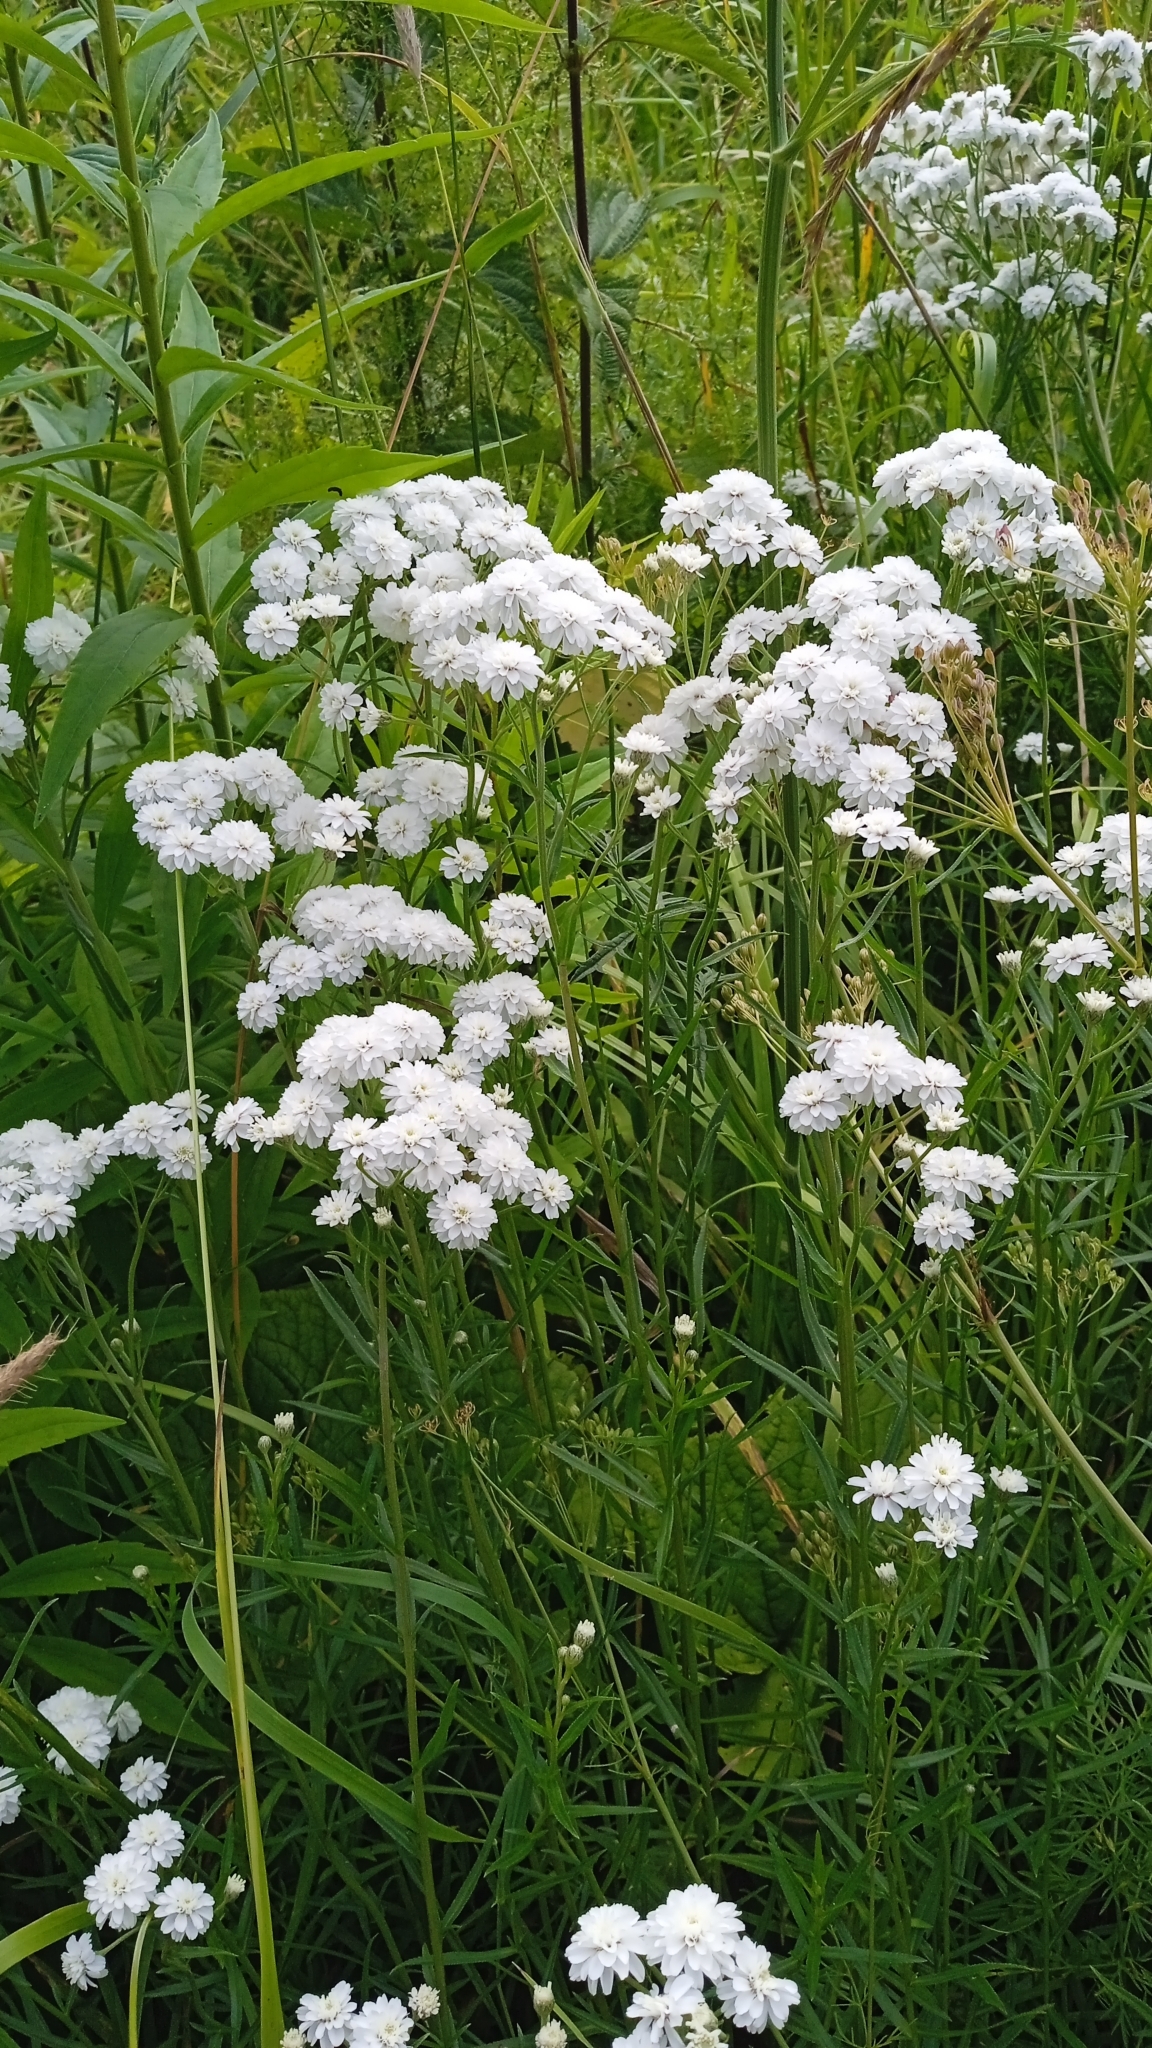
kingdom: Plantae
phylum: Tracheophyta
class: Magnoliopsida
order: Asterales
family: Asteraceae
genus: Achillea
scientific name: Achillea ptarmica
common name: Sneezeweed
